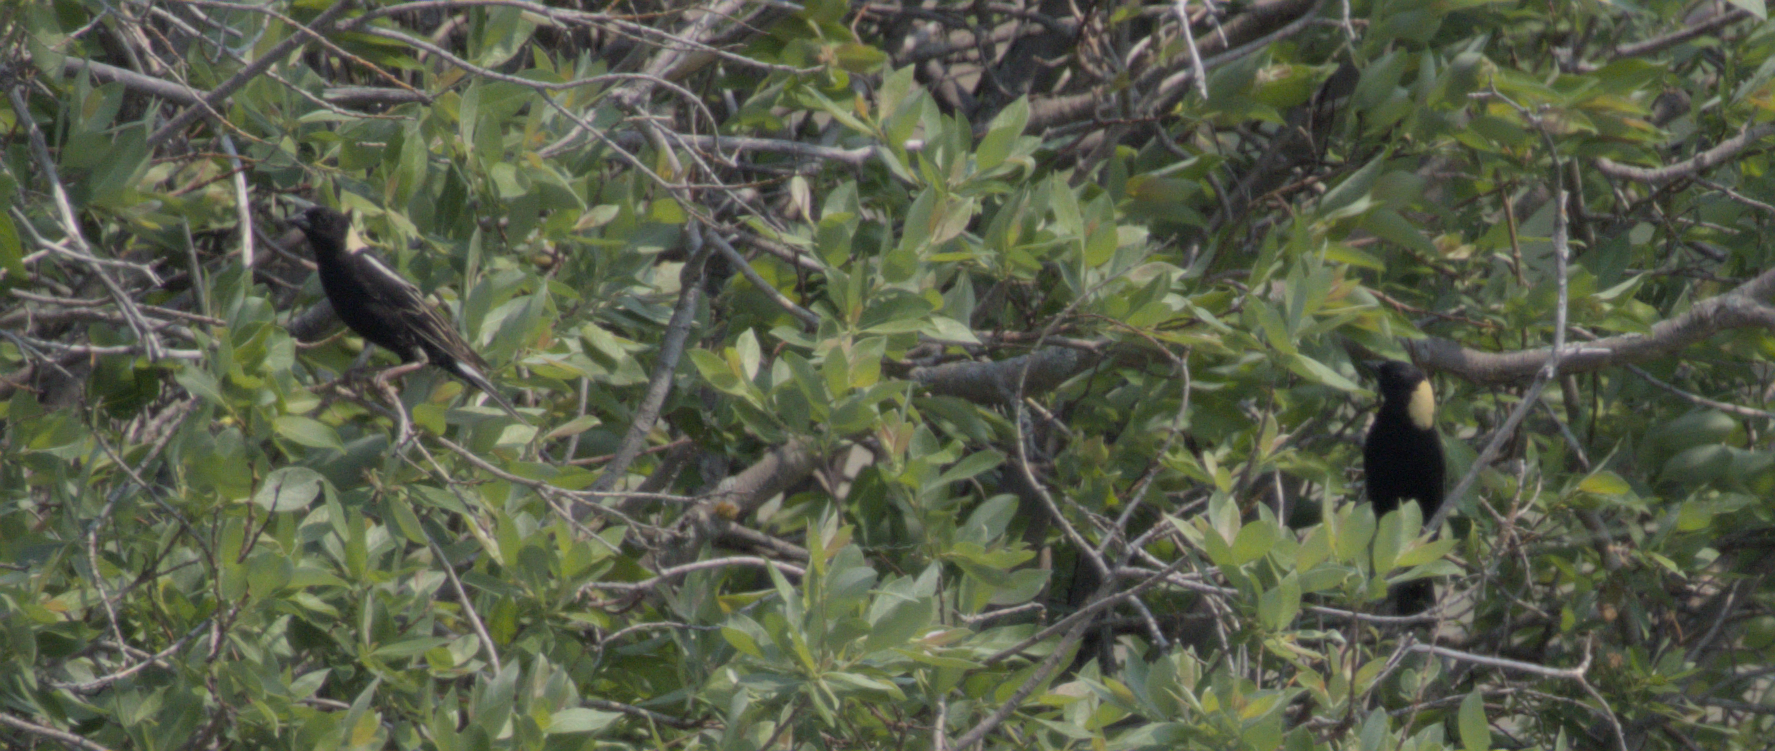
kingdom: Animalia
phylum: Chordata
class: Aves
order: Passeriformes
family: Icteridae
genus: Dolichonyx
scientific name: Dolichonyx oryzivorus
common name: Bobolink
